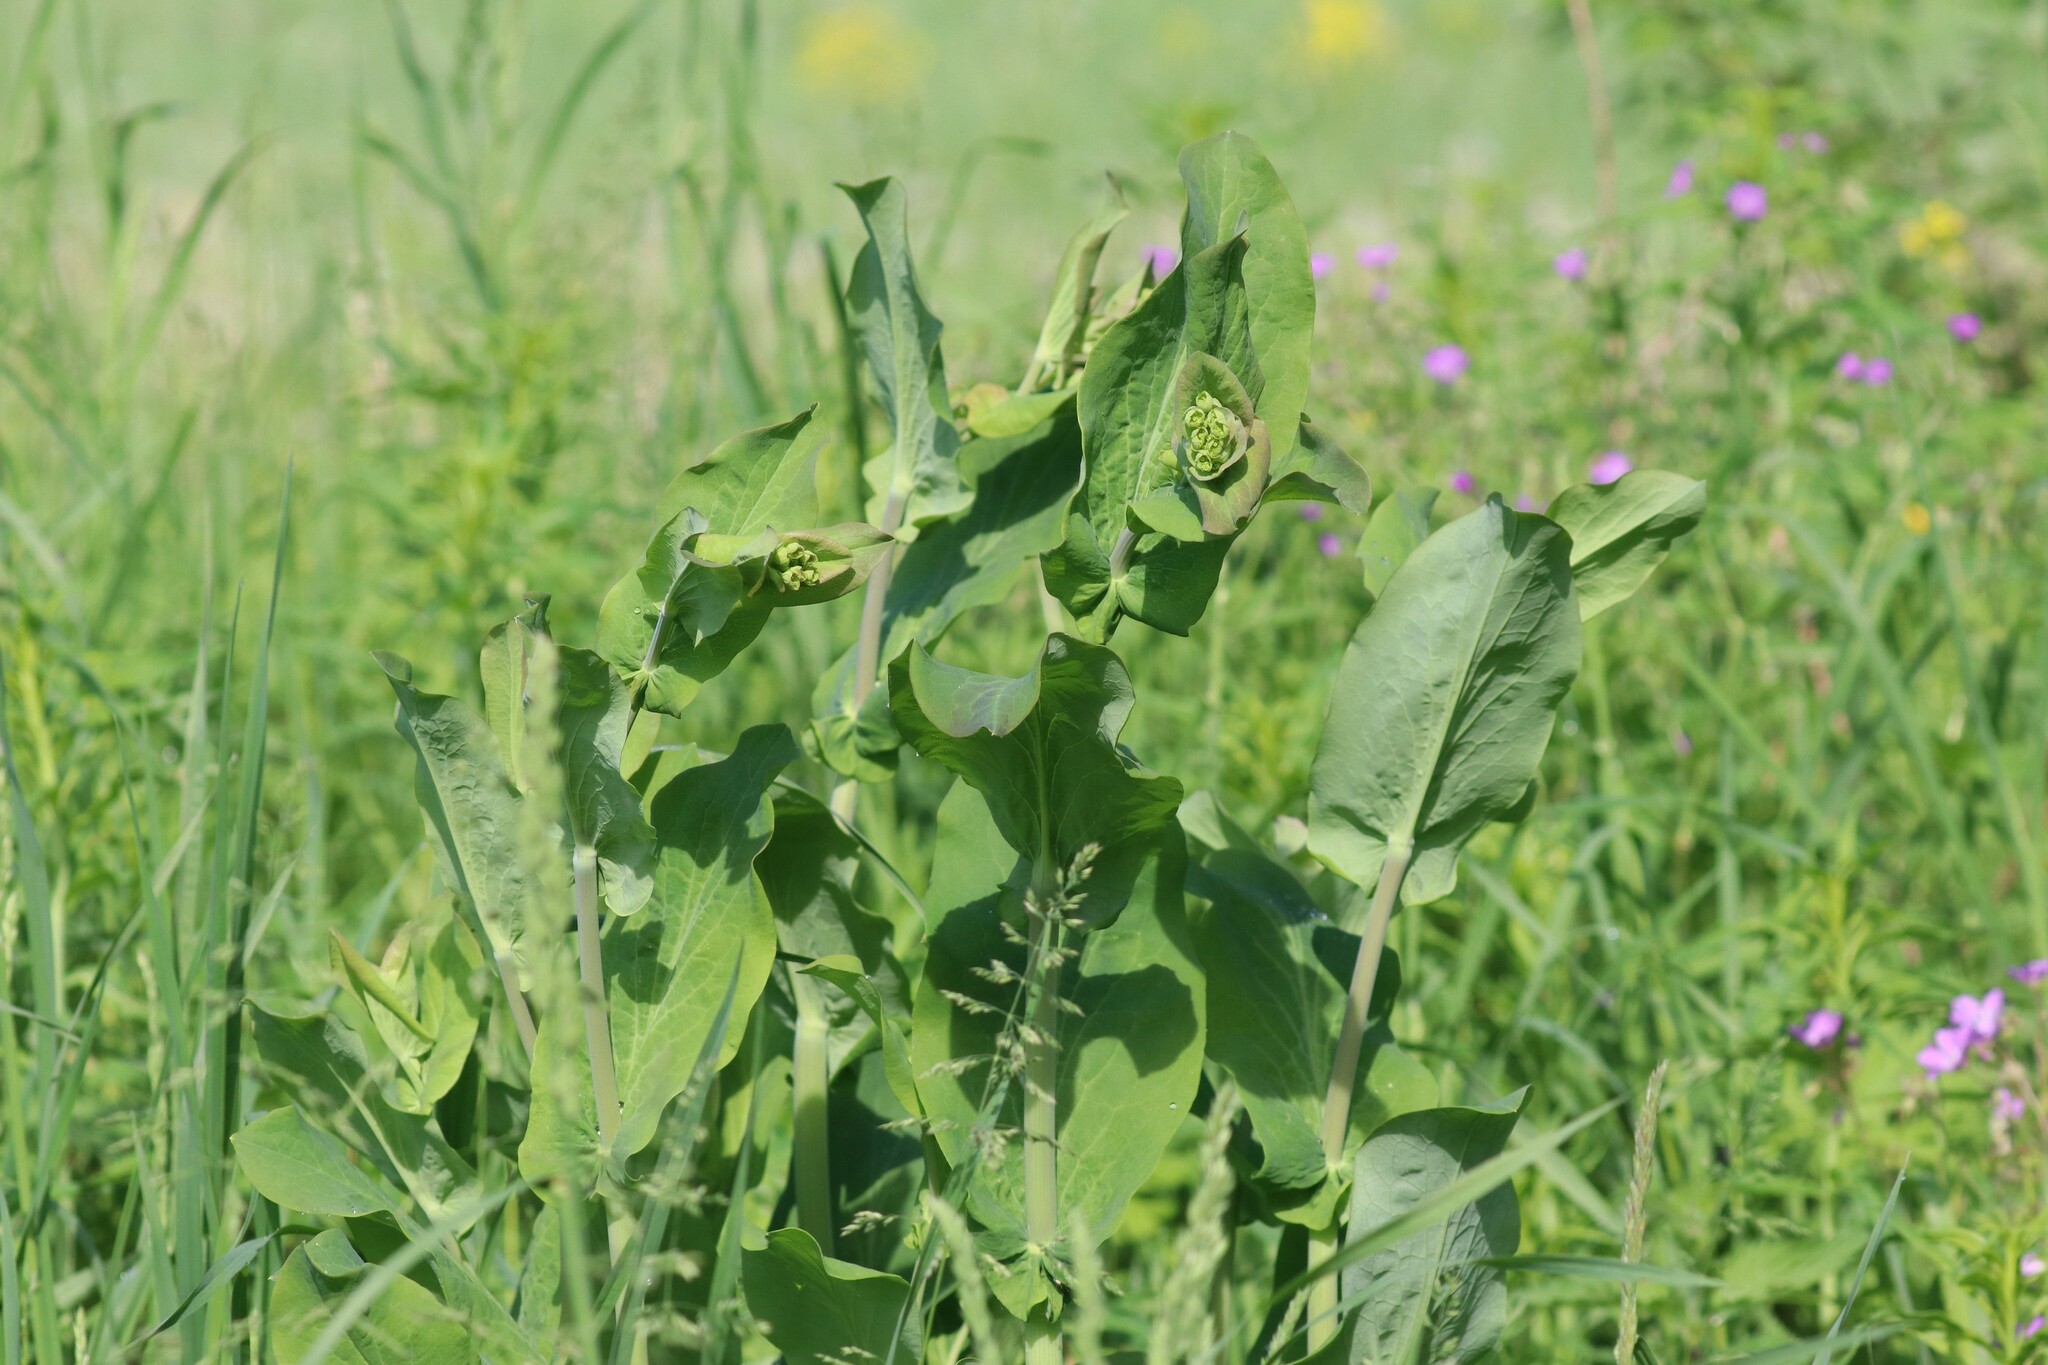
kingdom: Plantae
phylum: Tracheophyta
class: Magnoliopsida
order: Apiales
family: Apiaceae
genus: Bupleurum
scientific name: Bupleurum aureum
